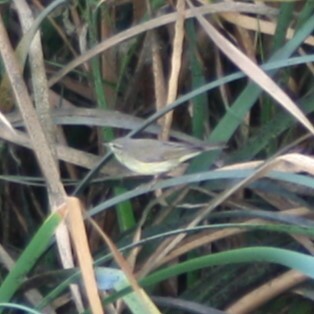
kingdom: Animalia
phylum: Chordata
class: Aves
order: Passeriformes
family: Phylloscopidae
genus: Phylloscopus
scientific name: Phylloscopus trochilus
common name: Willow warbler
